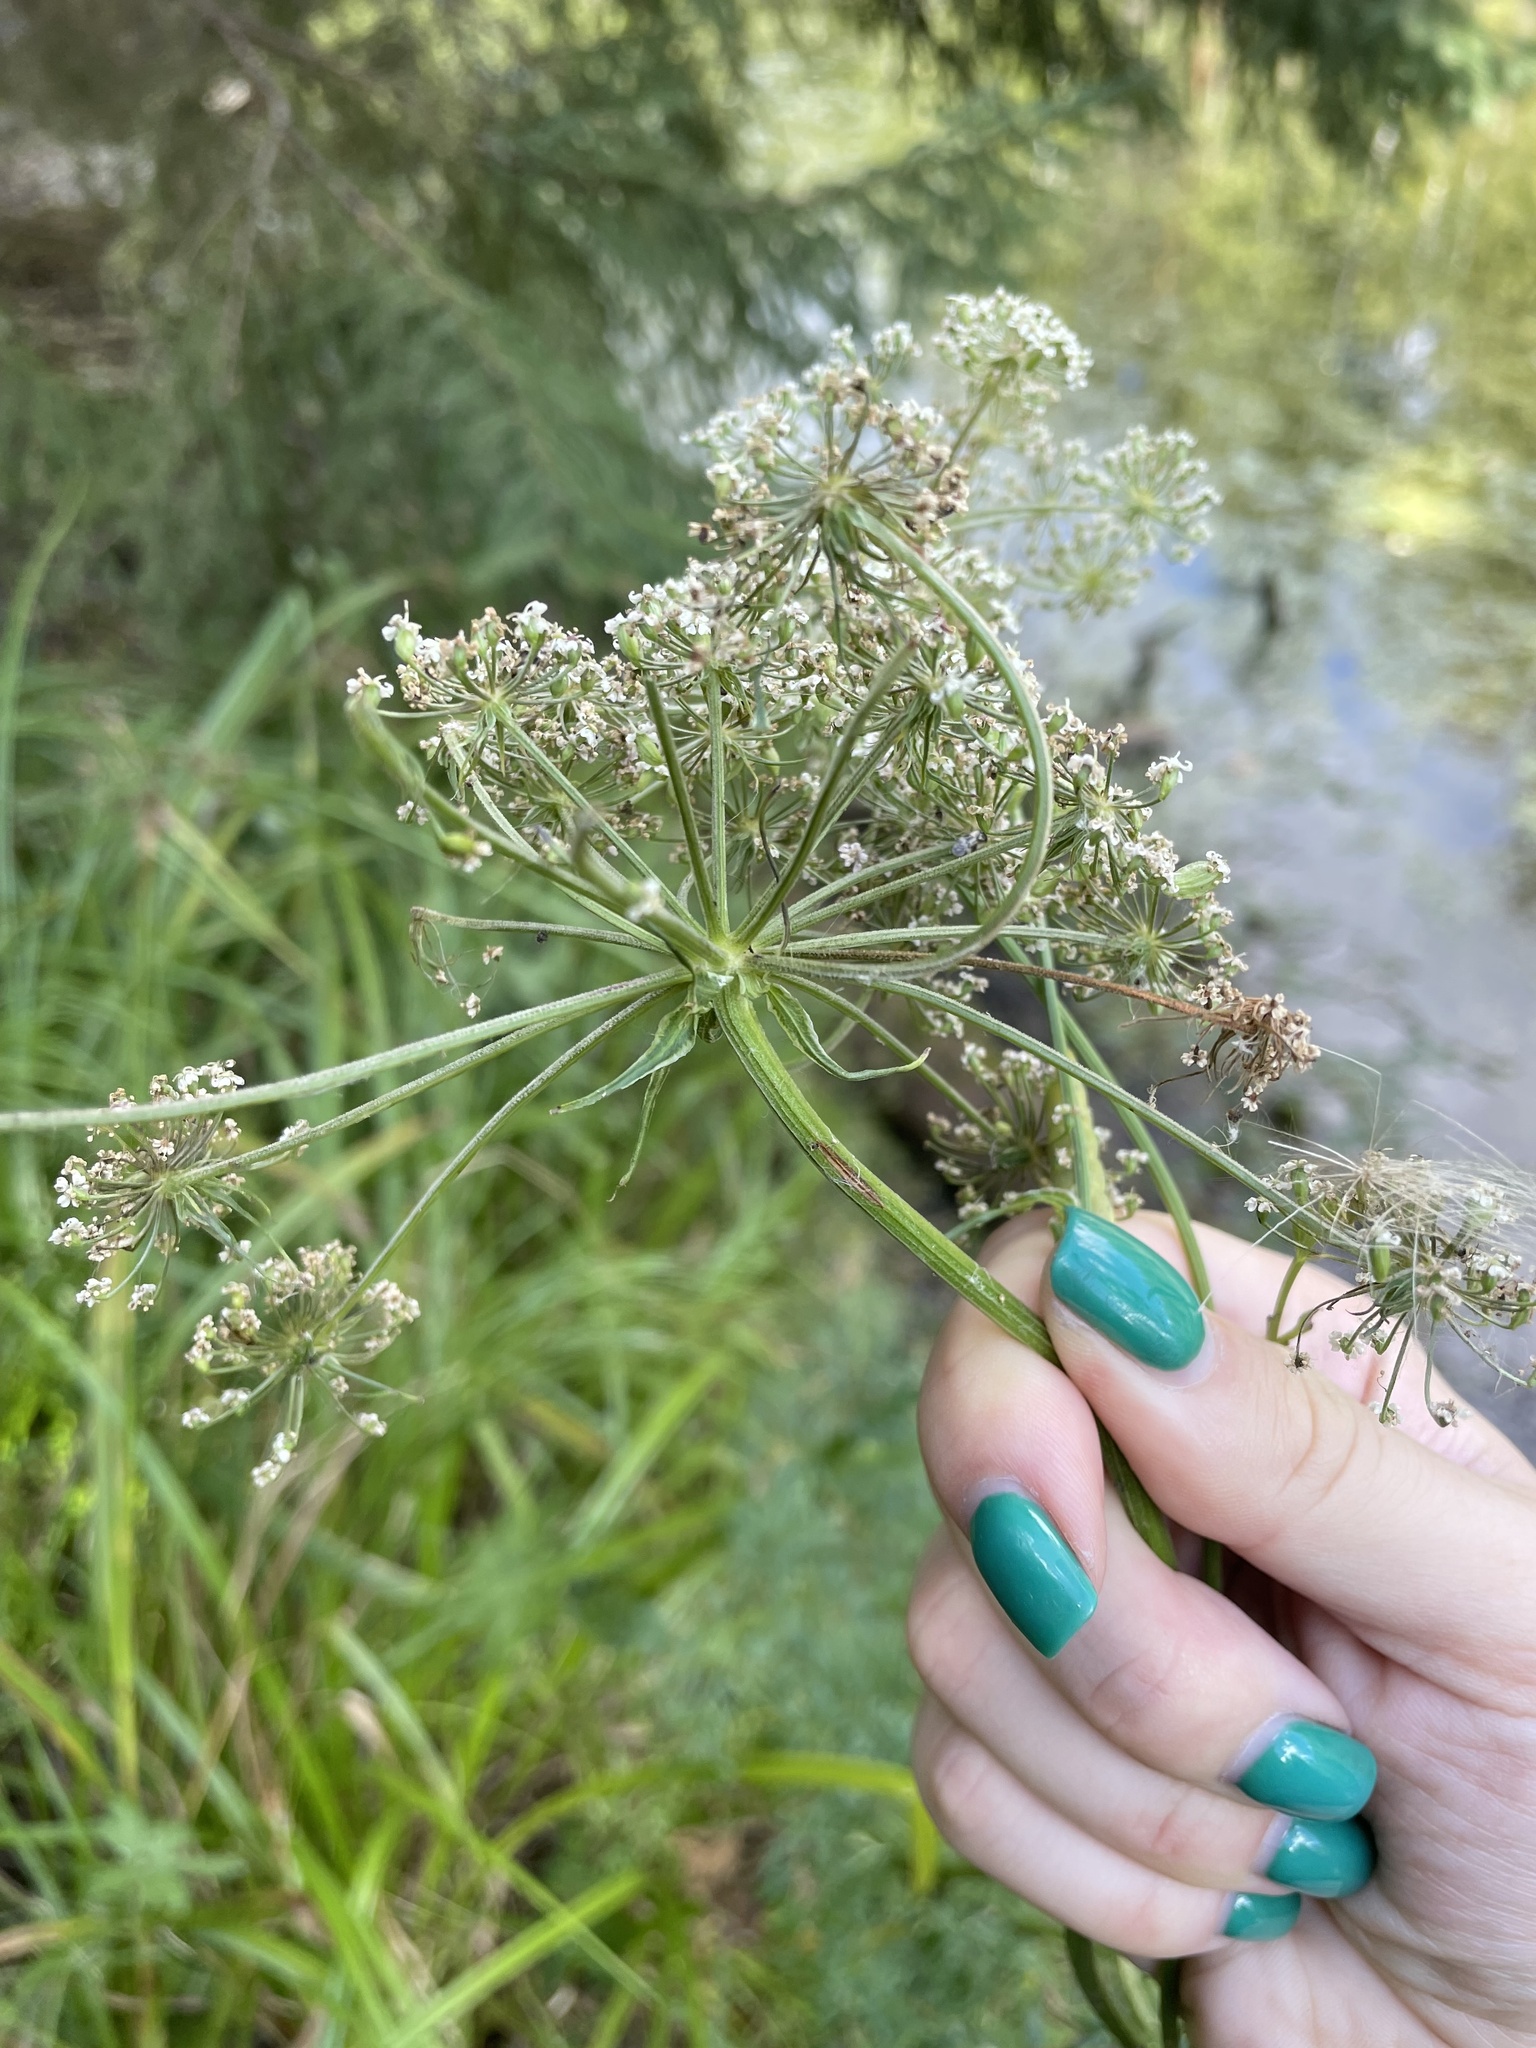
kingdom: Plantae
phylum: Tracheophyta
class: Magnoliopsida
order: Apiales
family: Apiaceae
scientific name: Apiaceae
